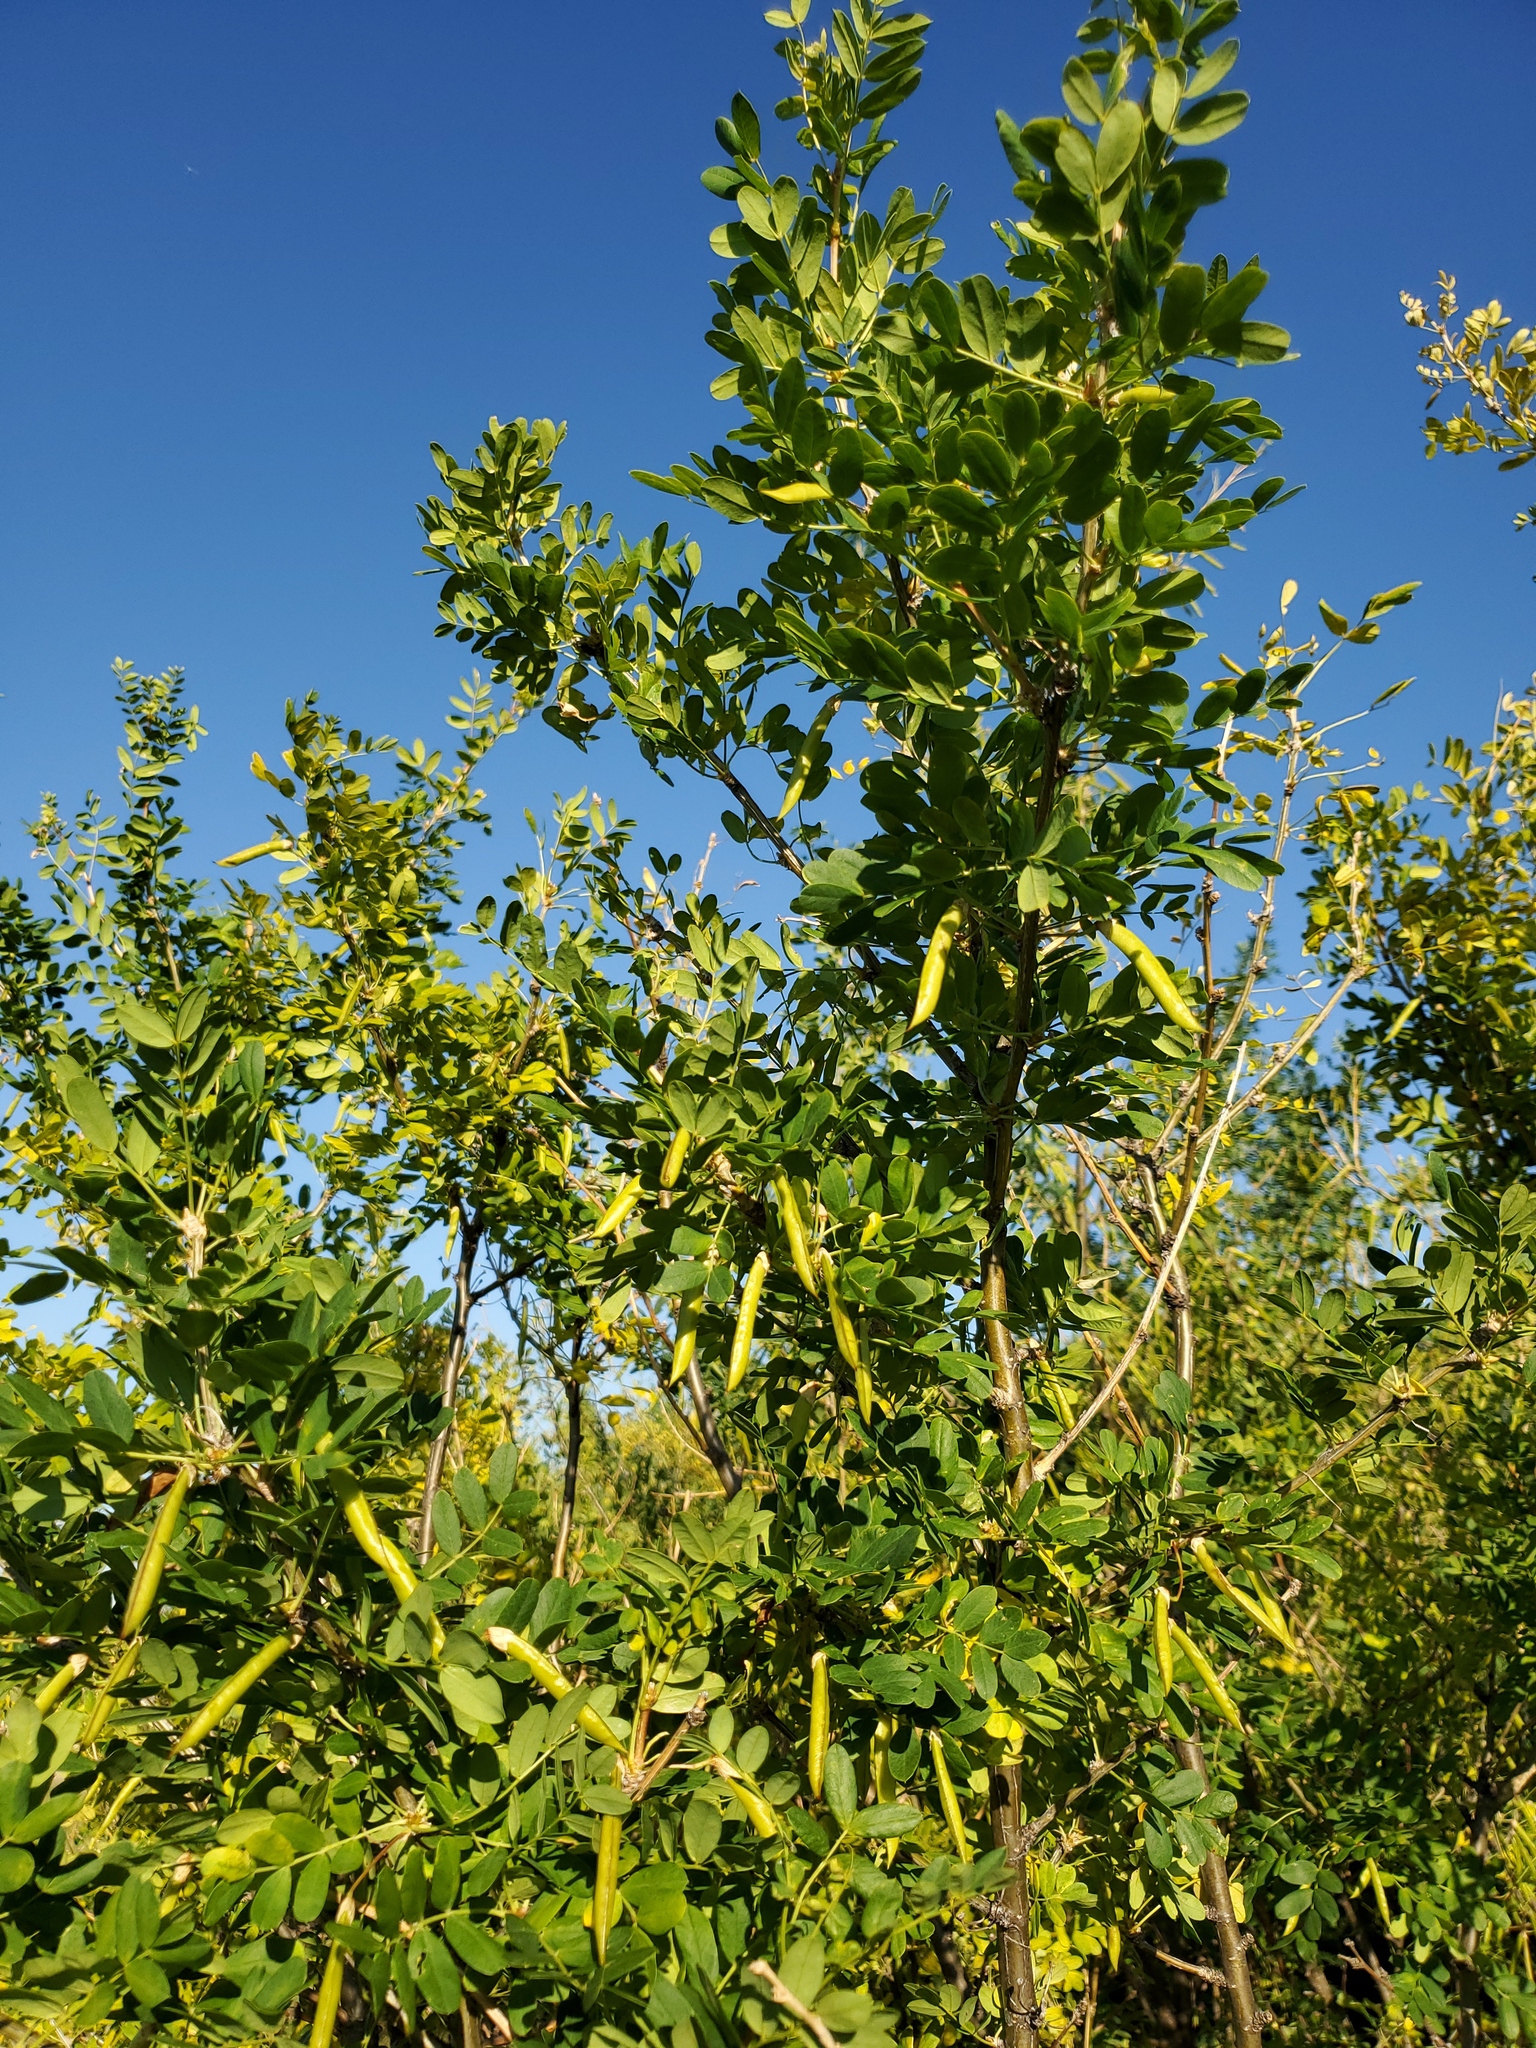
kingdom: Plantae
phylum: Tracheophyta
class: Magnoliopsida
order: Fabales
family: Fabaceae
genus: Caragana
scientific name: Caragana arborescens
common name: Siberian peashrub
